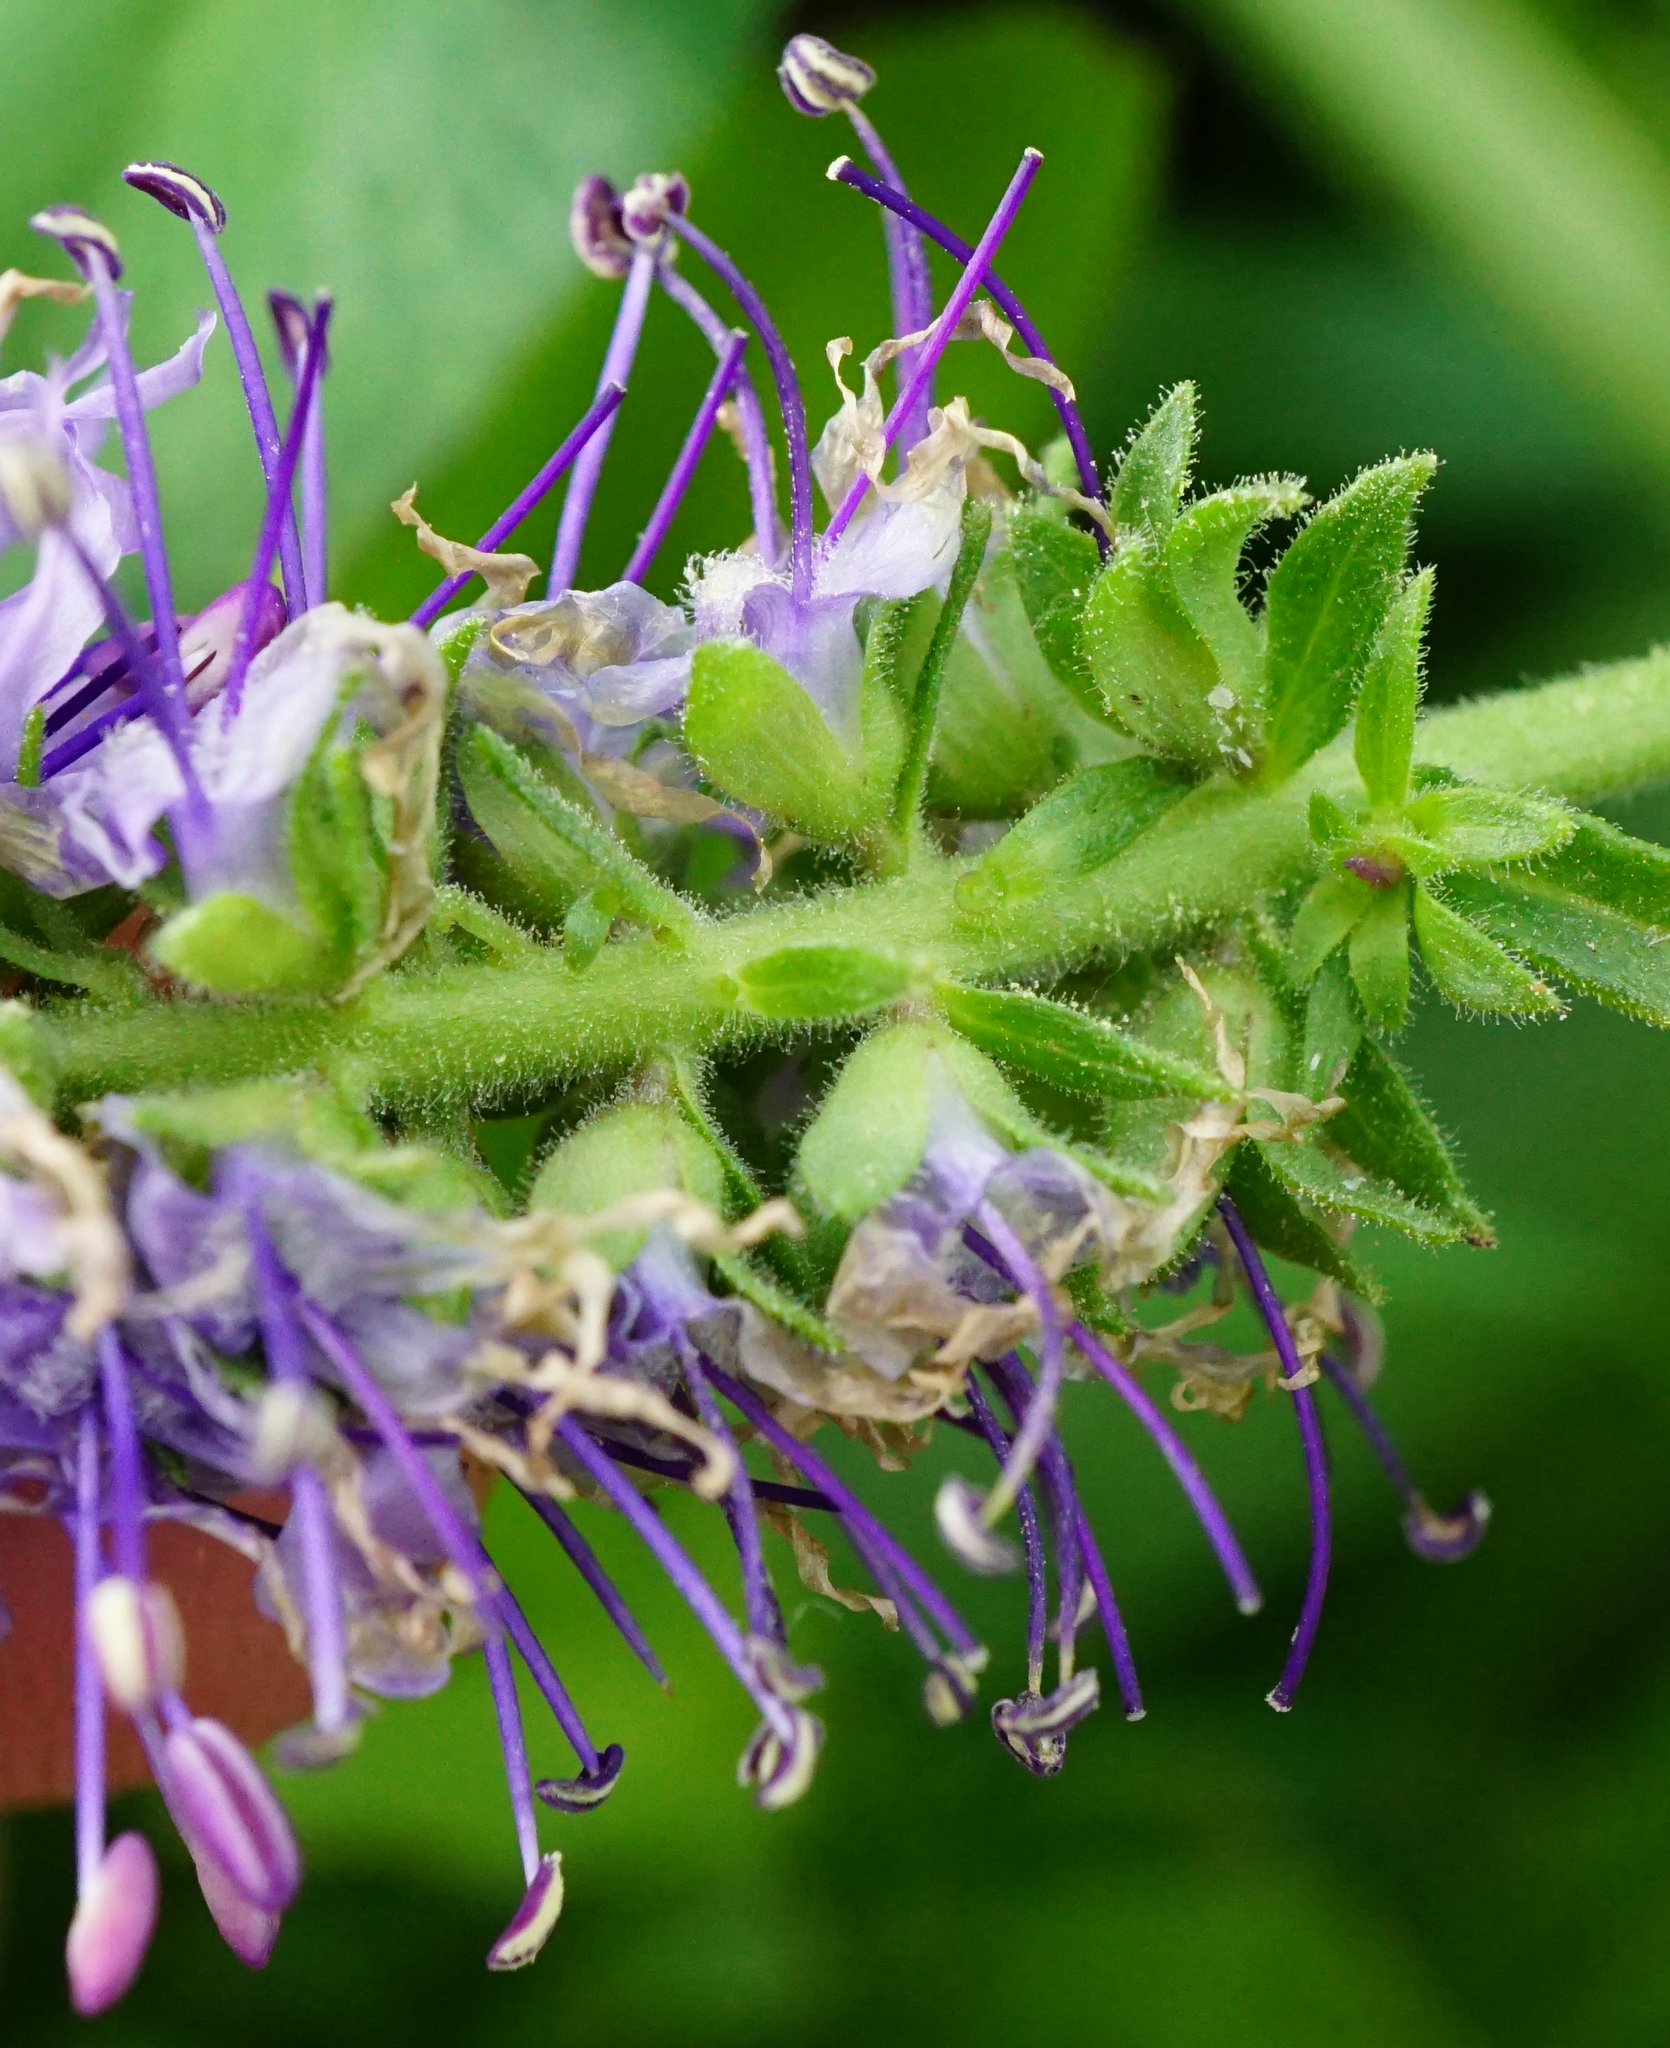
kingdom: Plantae
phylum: Tracheophyta
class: Magnoliopsida
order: Lamiales
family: Plantaginaceae
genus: Veronica
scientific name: Veronica orchidea
